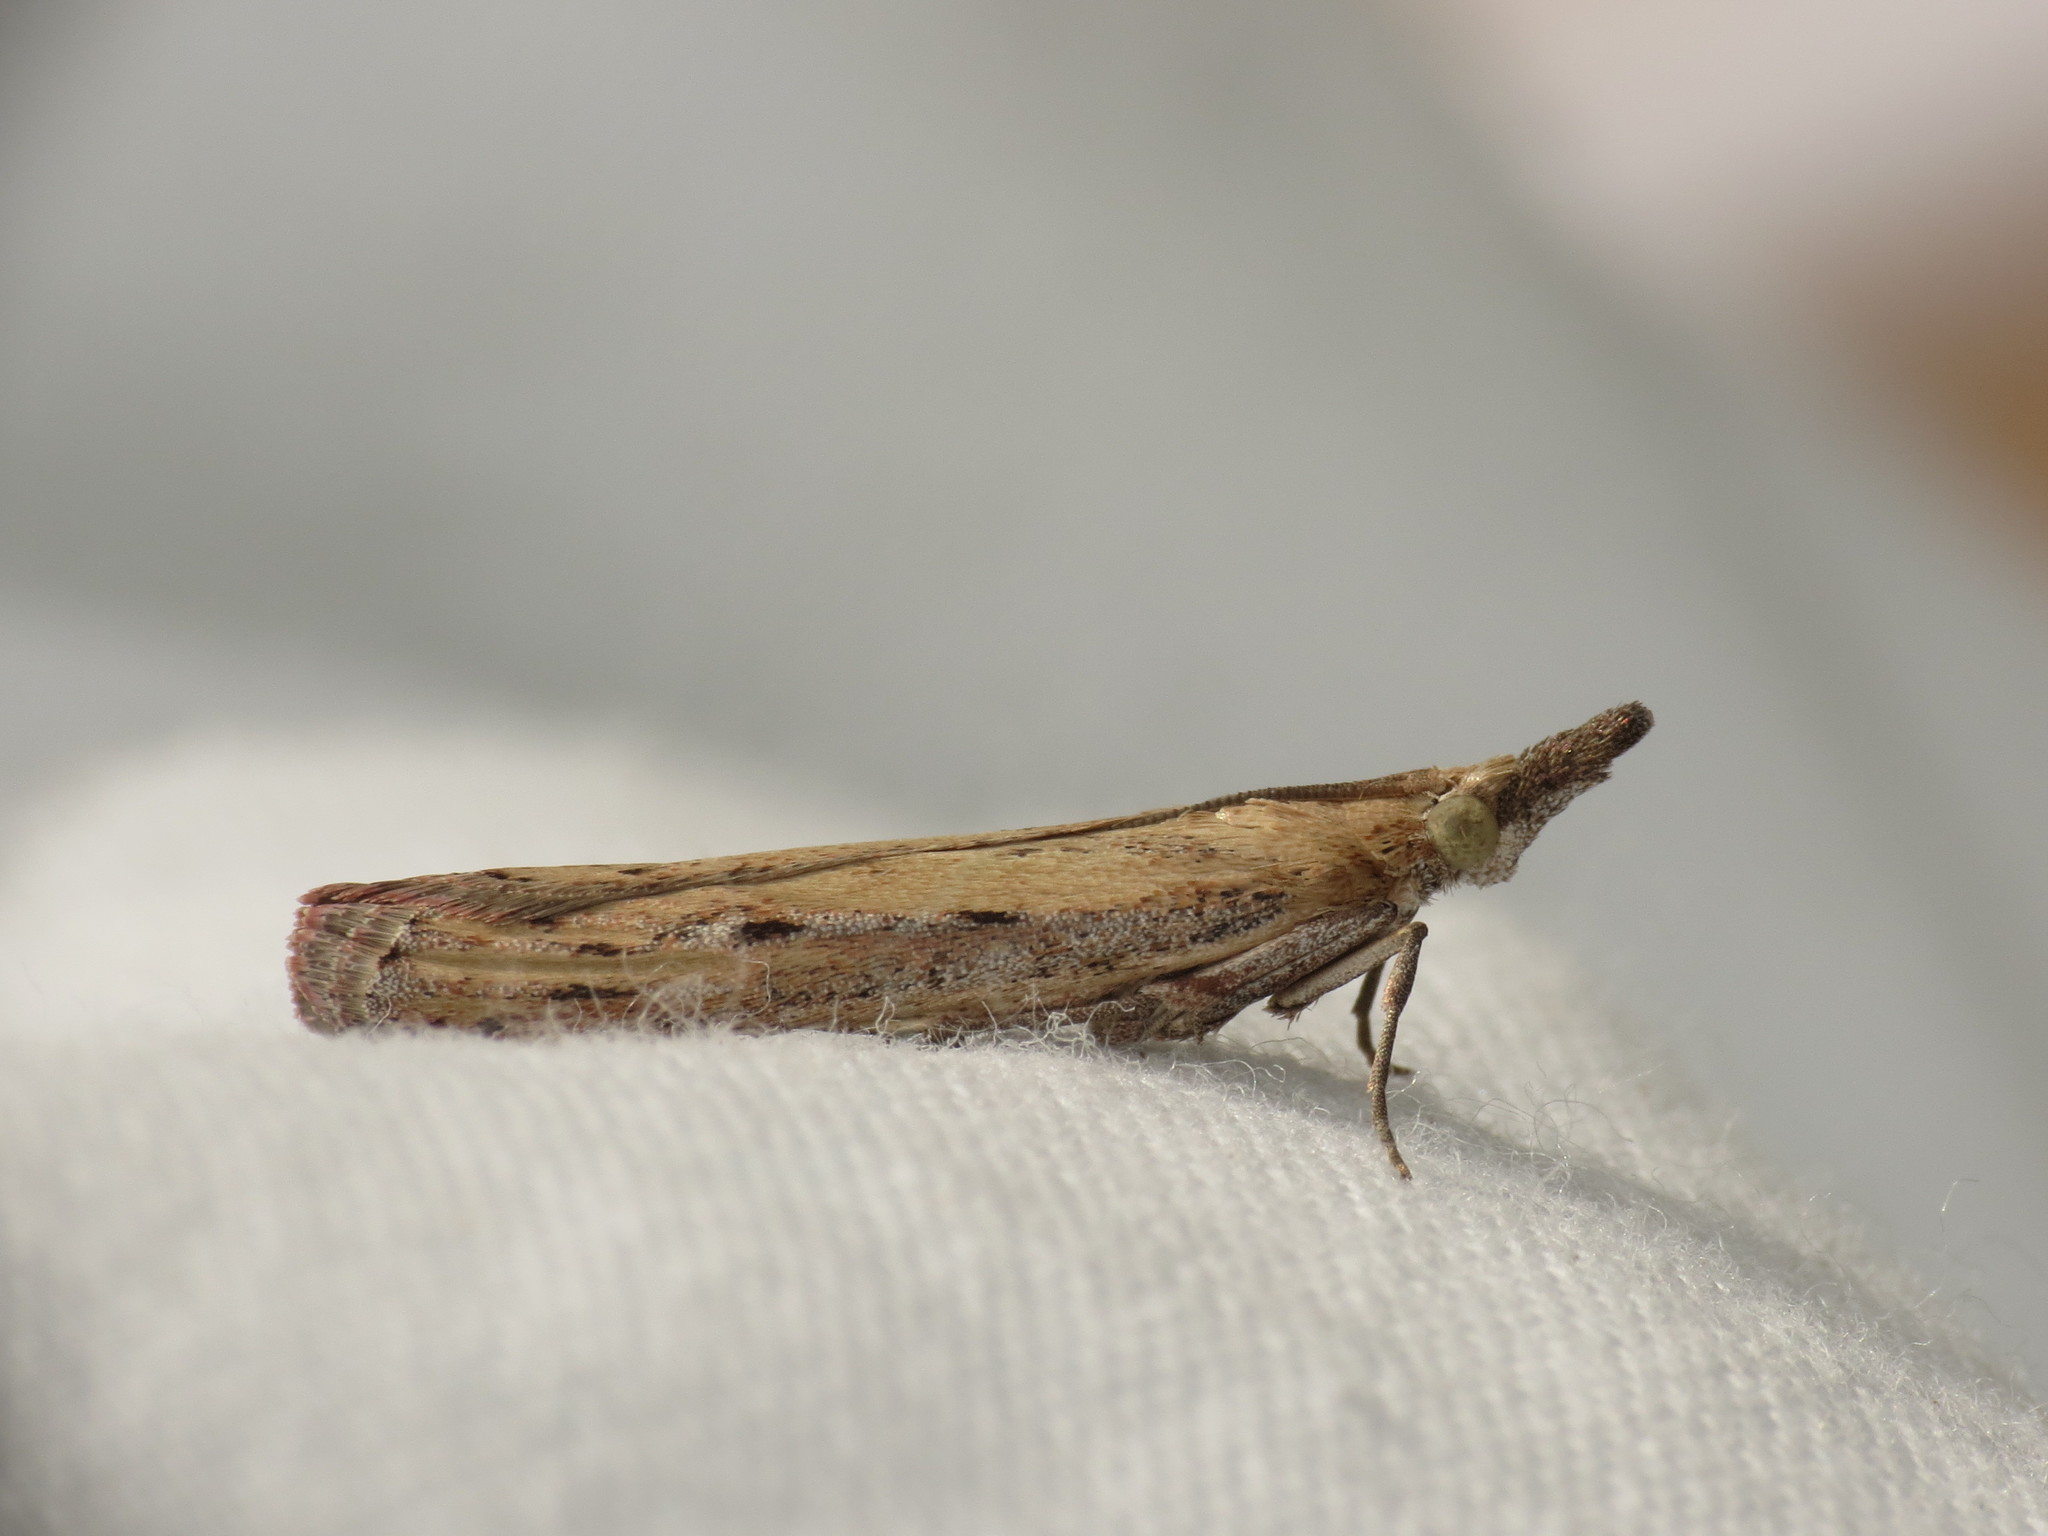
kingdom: Animalia
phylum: Arthropoda
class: Insecta
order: Lepidoptera
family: Pyralidae
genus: Faveria
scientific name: Faveria tritalis
